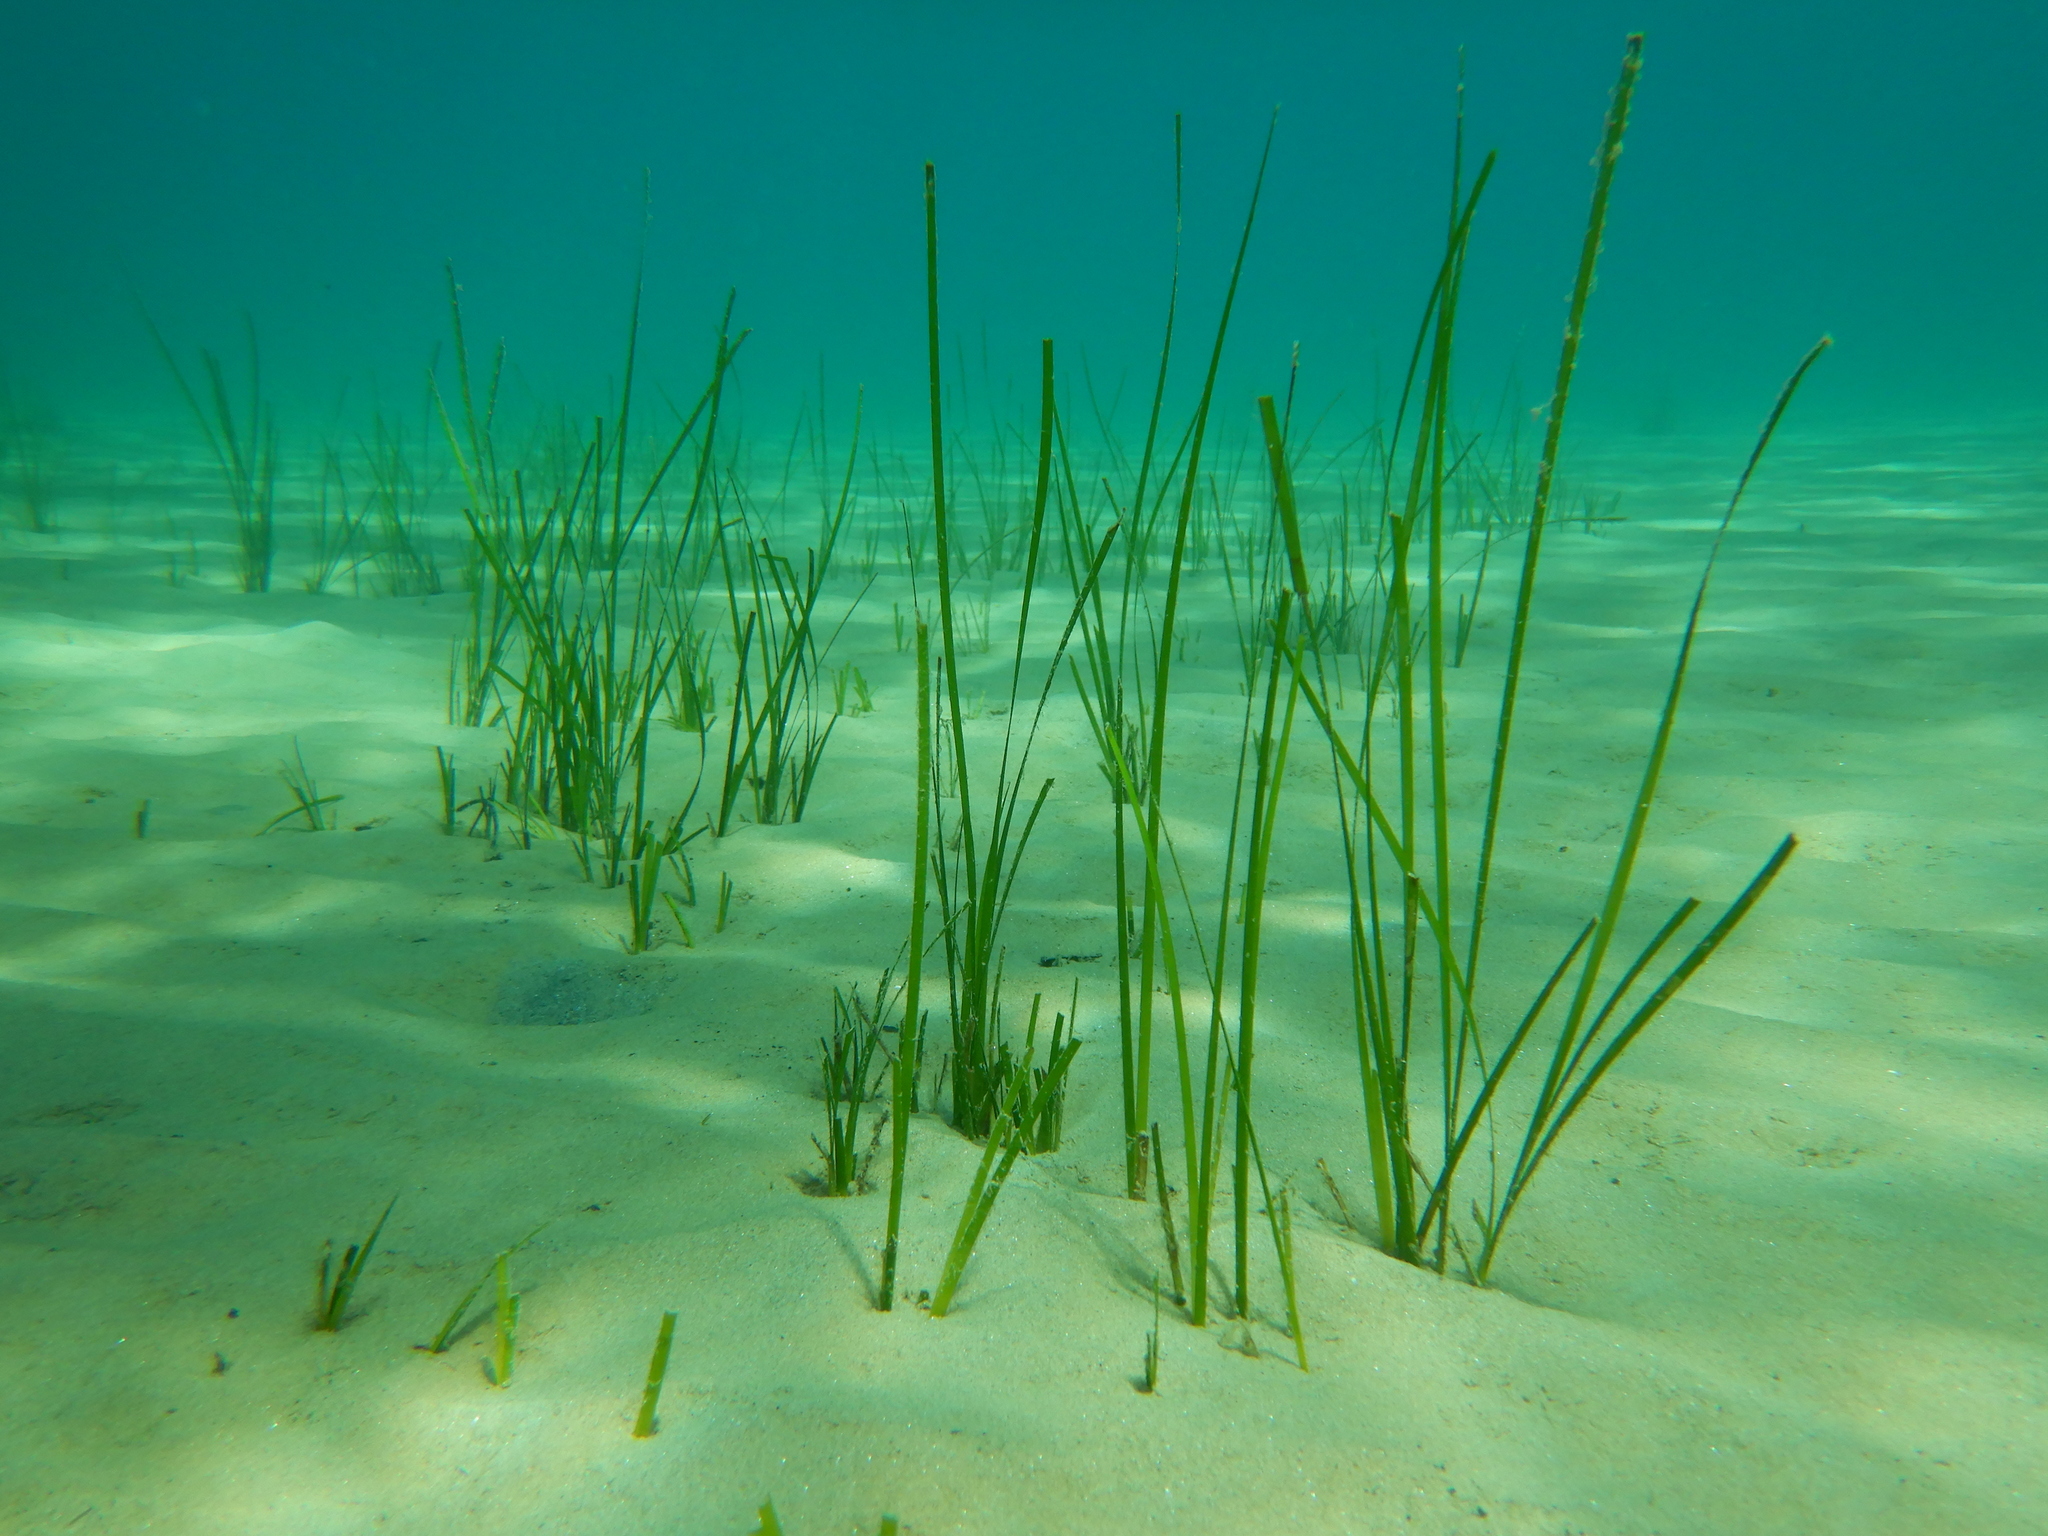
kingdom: Plantae
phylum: Tracheophyta
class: Liliopsida
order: Alismatales
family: Cymodoceaceae
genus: Cymodocea
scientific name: Cymodocea nodosa
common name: Slender seagrass
